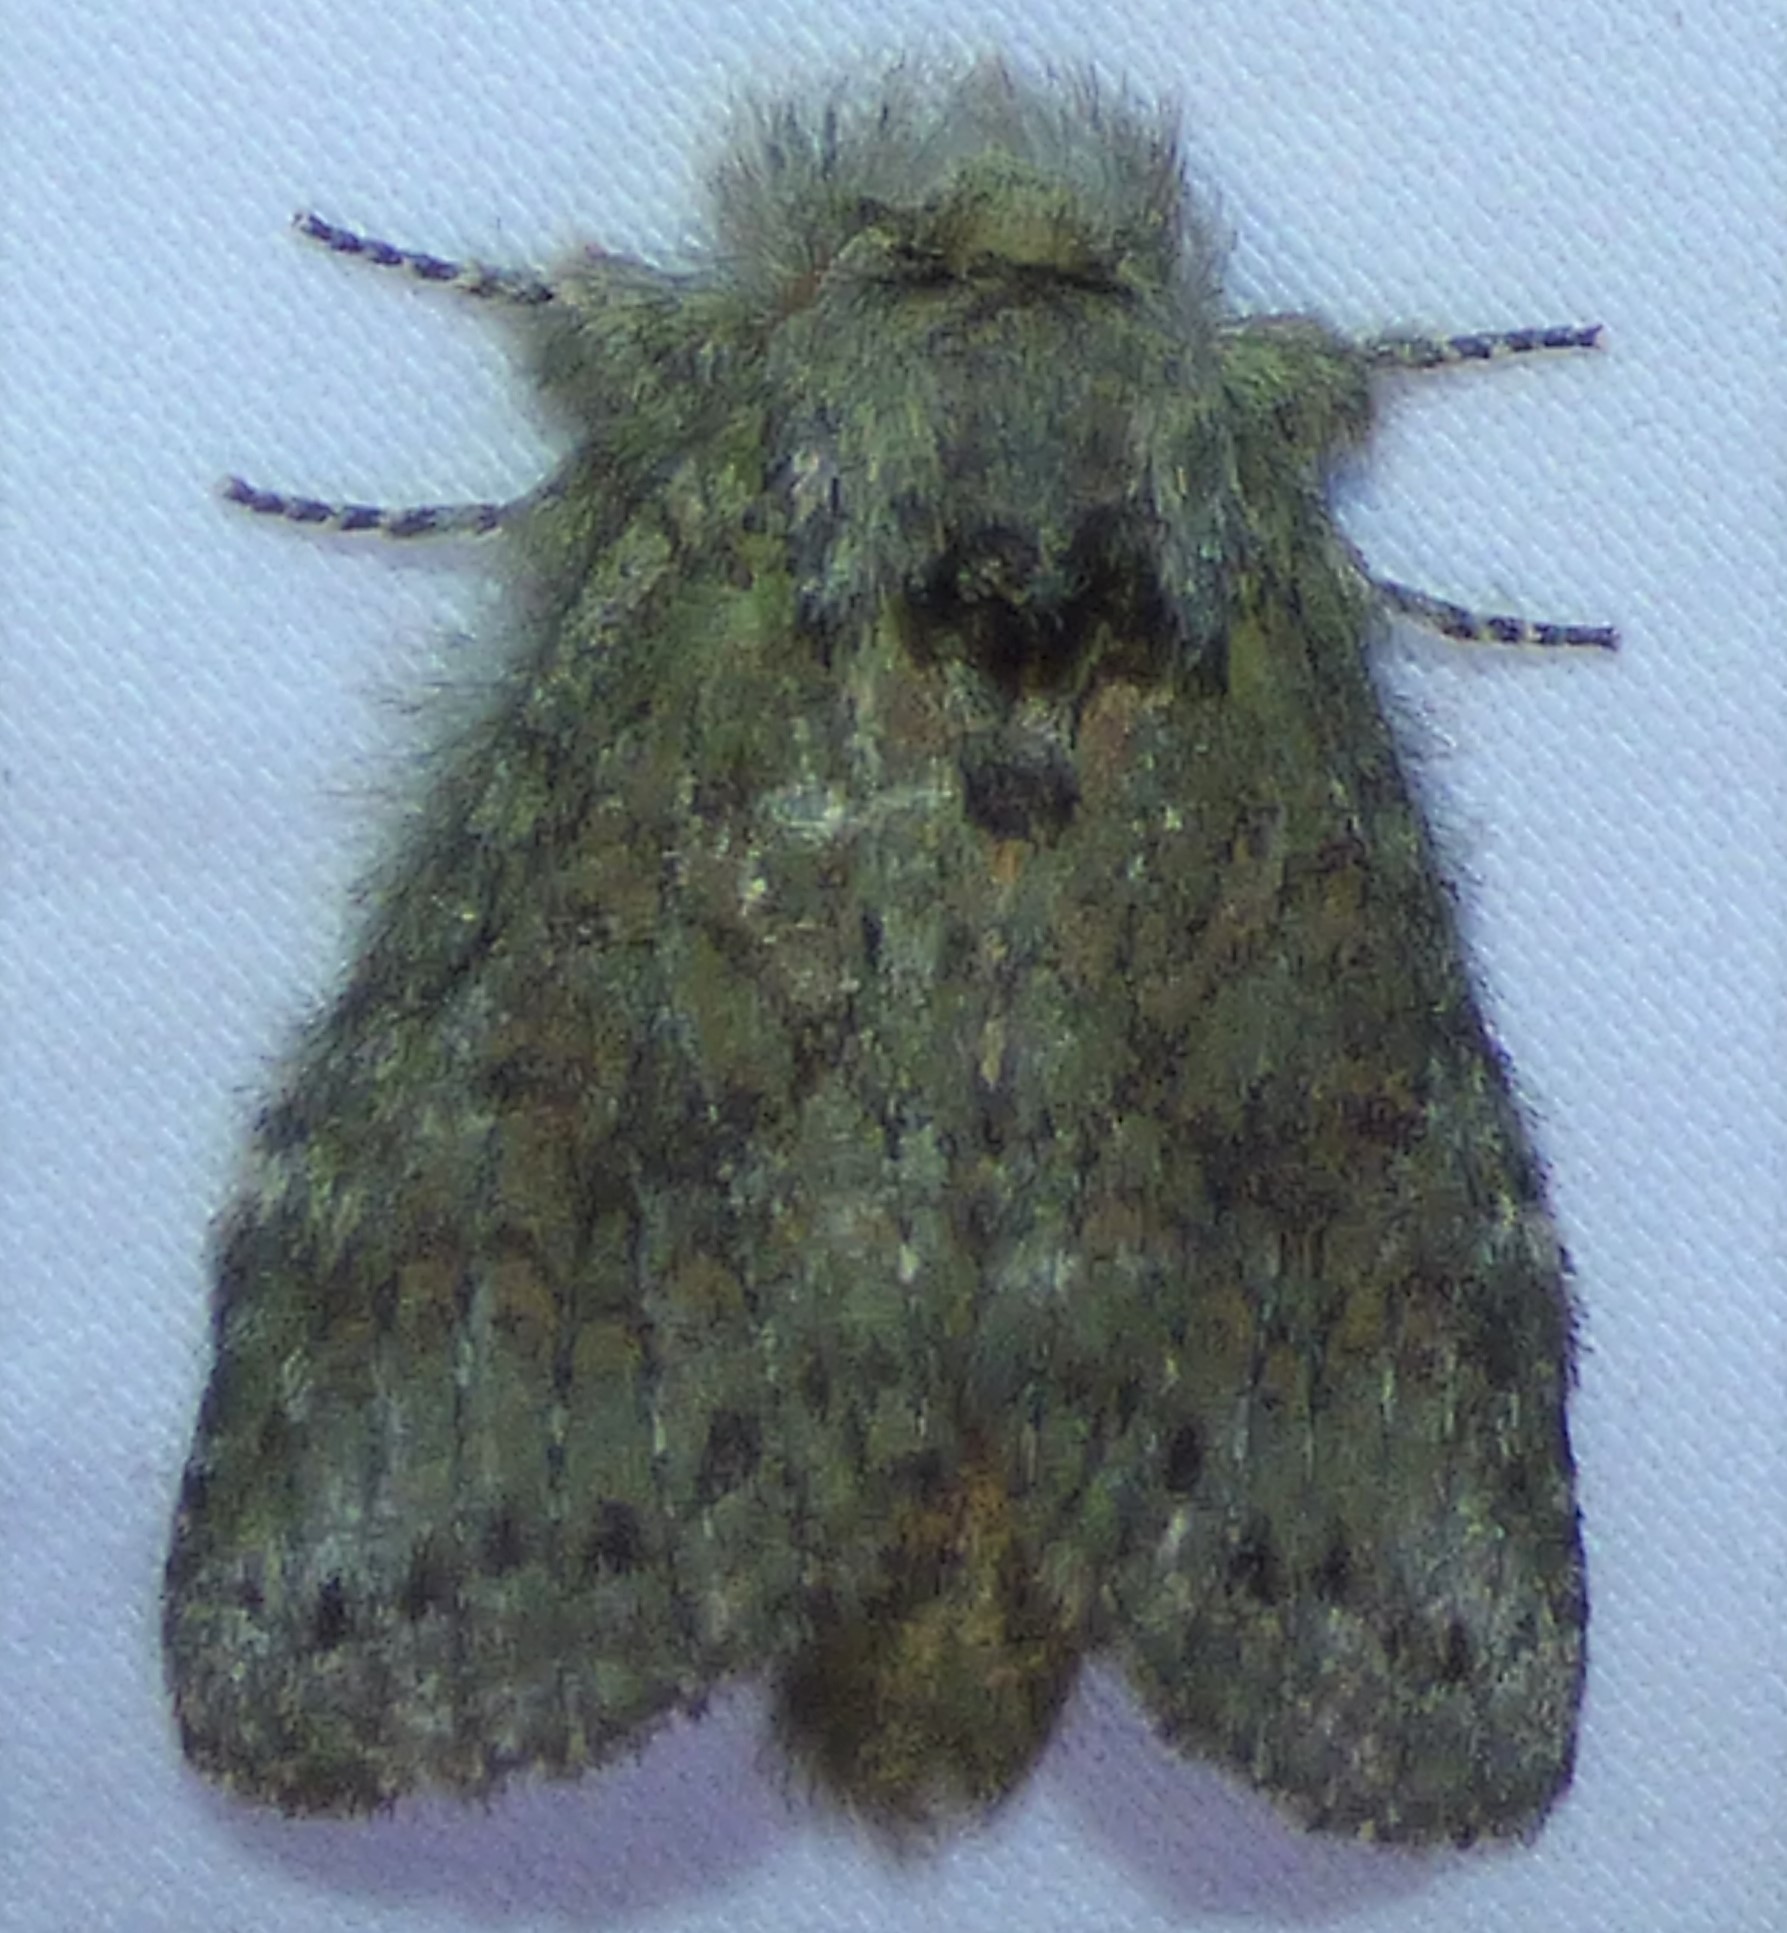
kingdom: Animalia
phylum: Arthropoda
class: Insecta
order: Lepidoptera
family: Notodontidae
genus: Heterocampa
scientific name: Heterocampa
